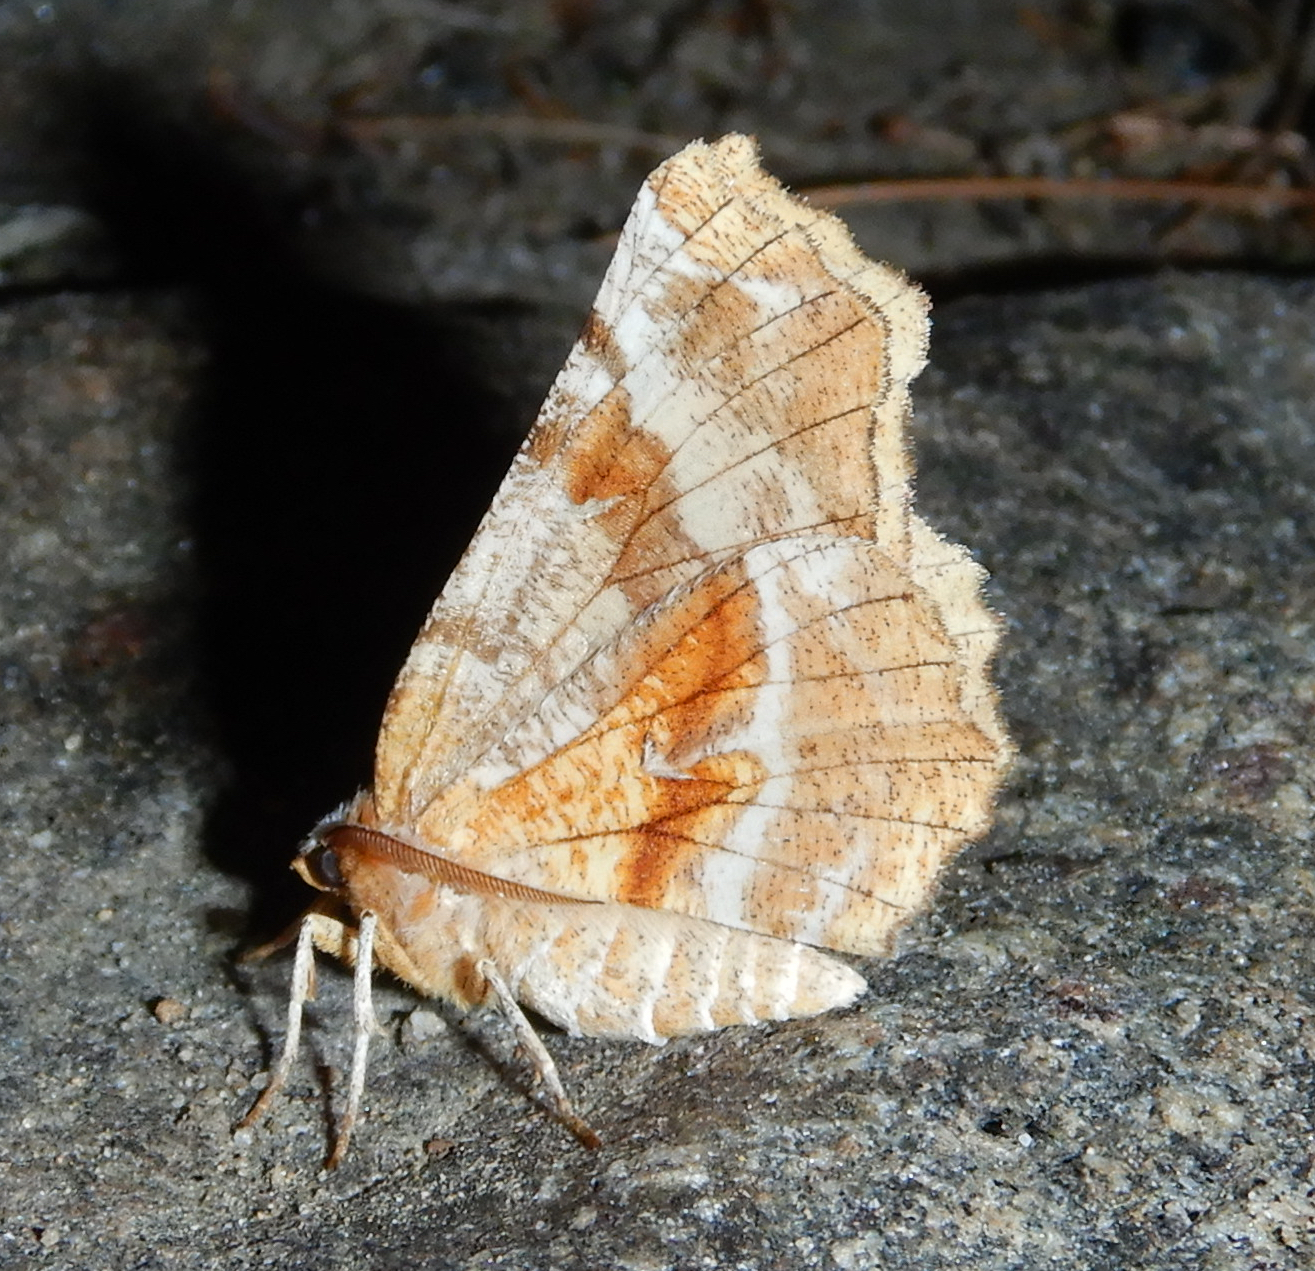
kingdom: Animalia
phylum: Arthropoda
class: Insecta
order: Lepidoptera
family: Geometridae
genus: Selenia
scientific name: Selenia kentaria
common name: Kent's geometer
